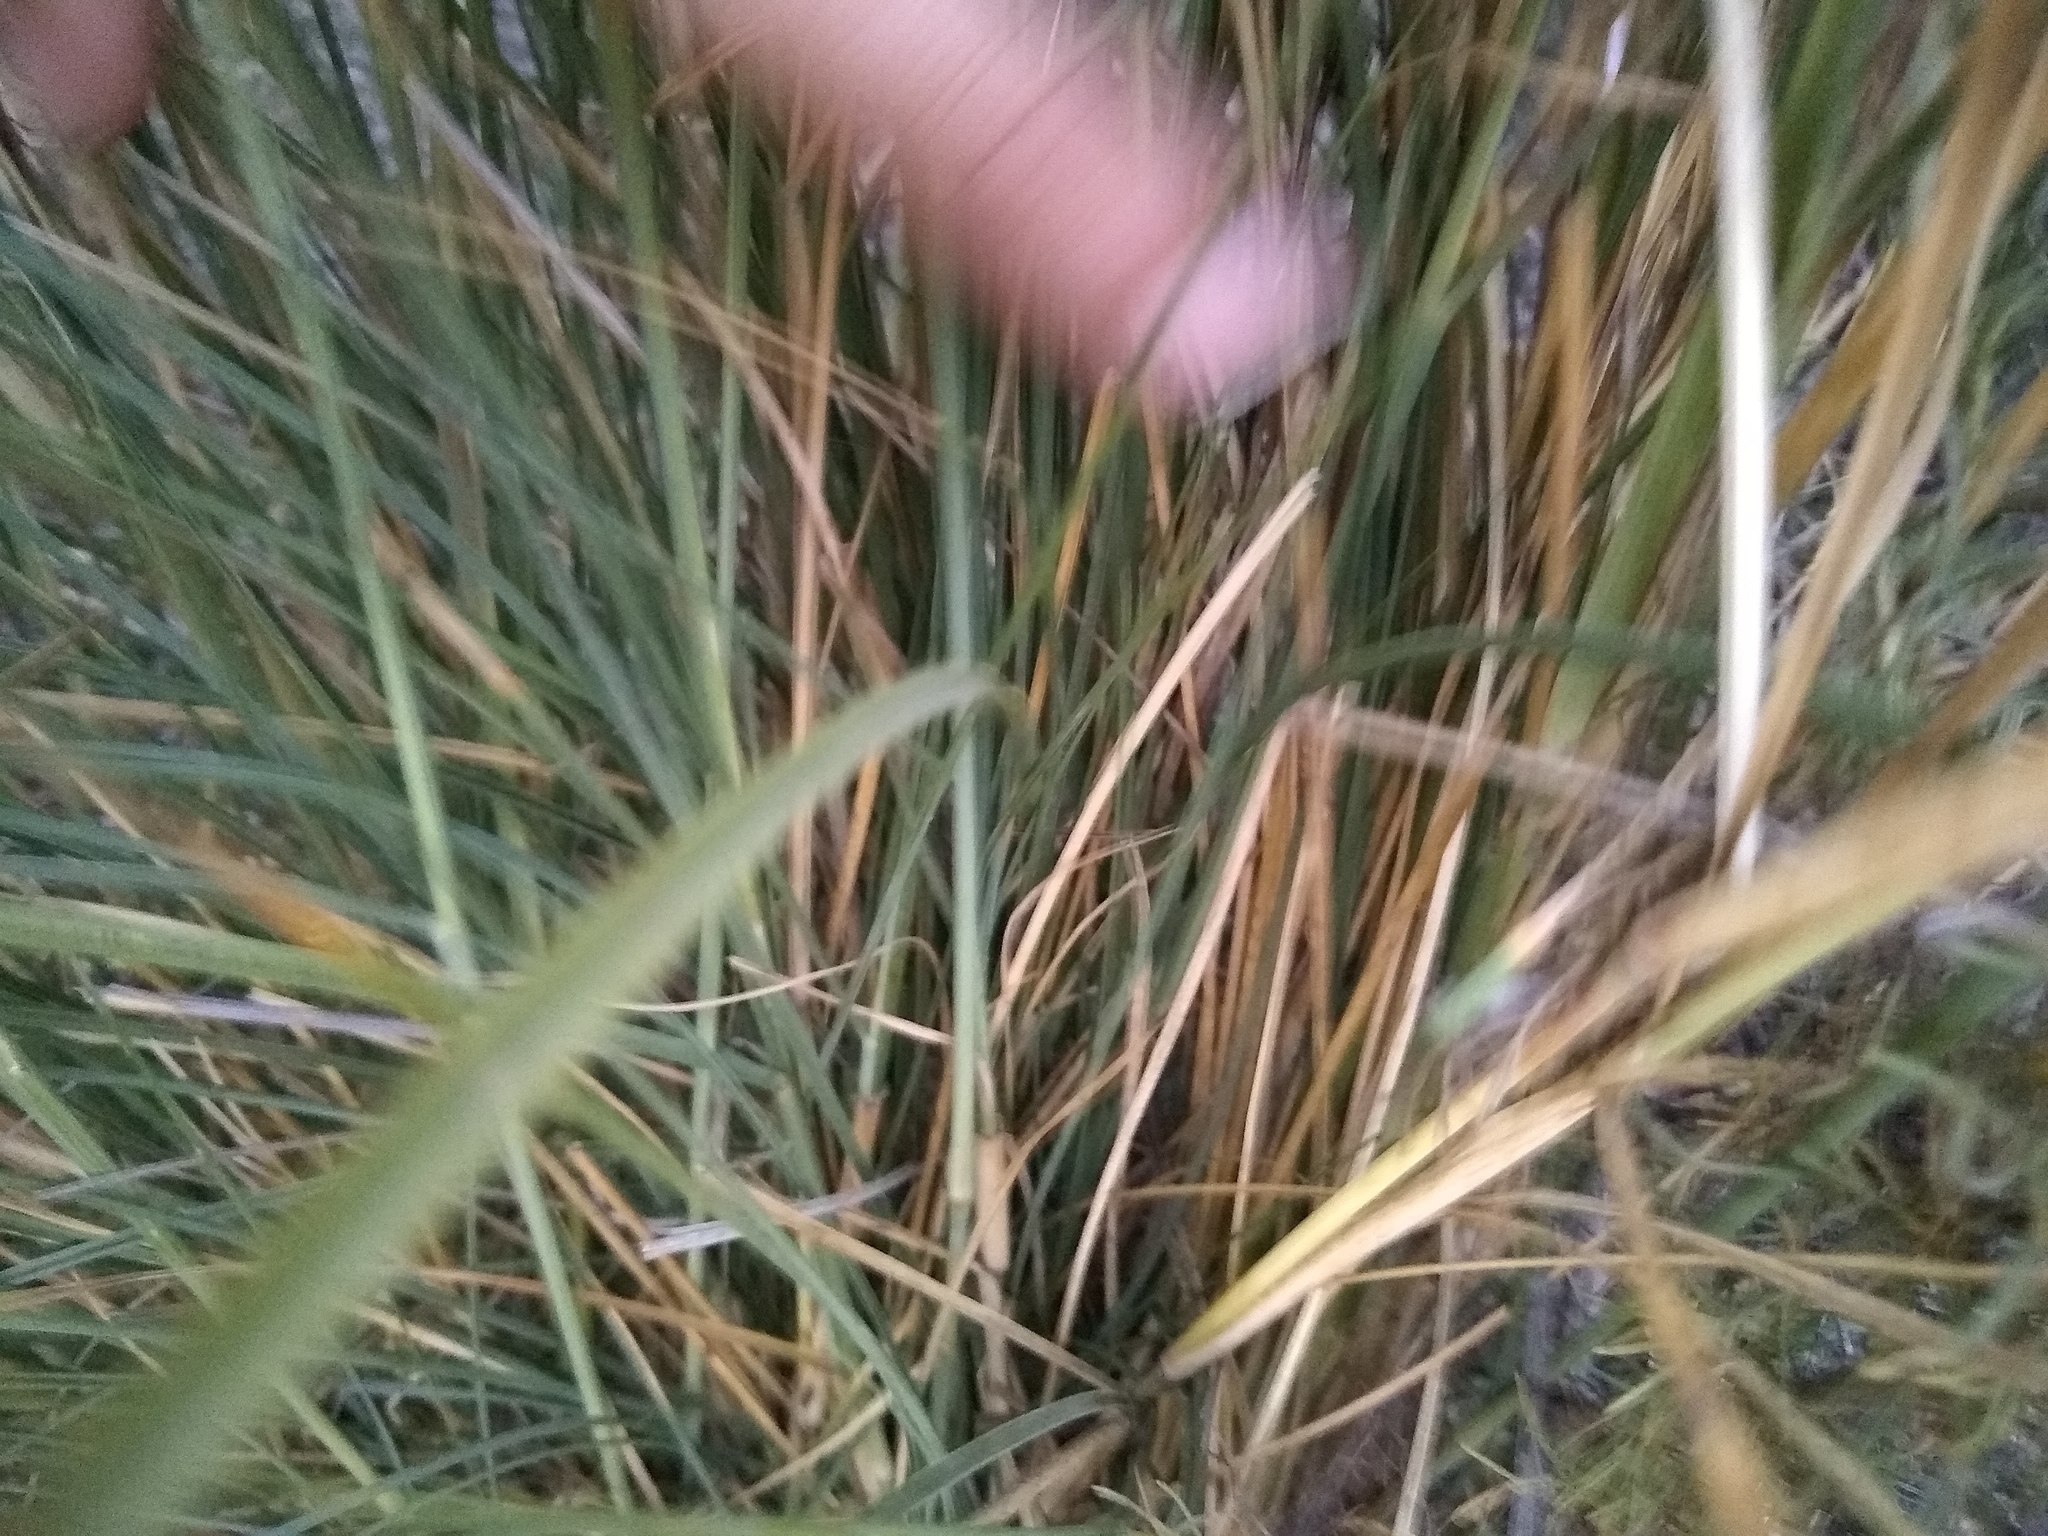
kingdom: Plantae
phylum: Tracheophyta
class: Liliopsida
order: Poales
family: Poaceae
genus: Cenchrus
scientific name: Cenchrus setaceus
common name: Crimson fountaingrass
